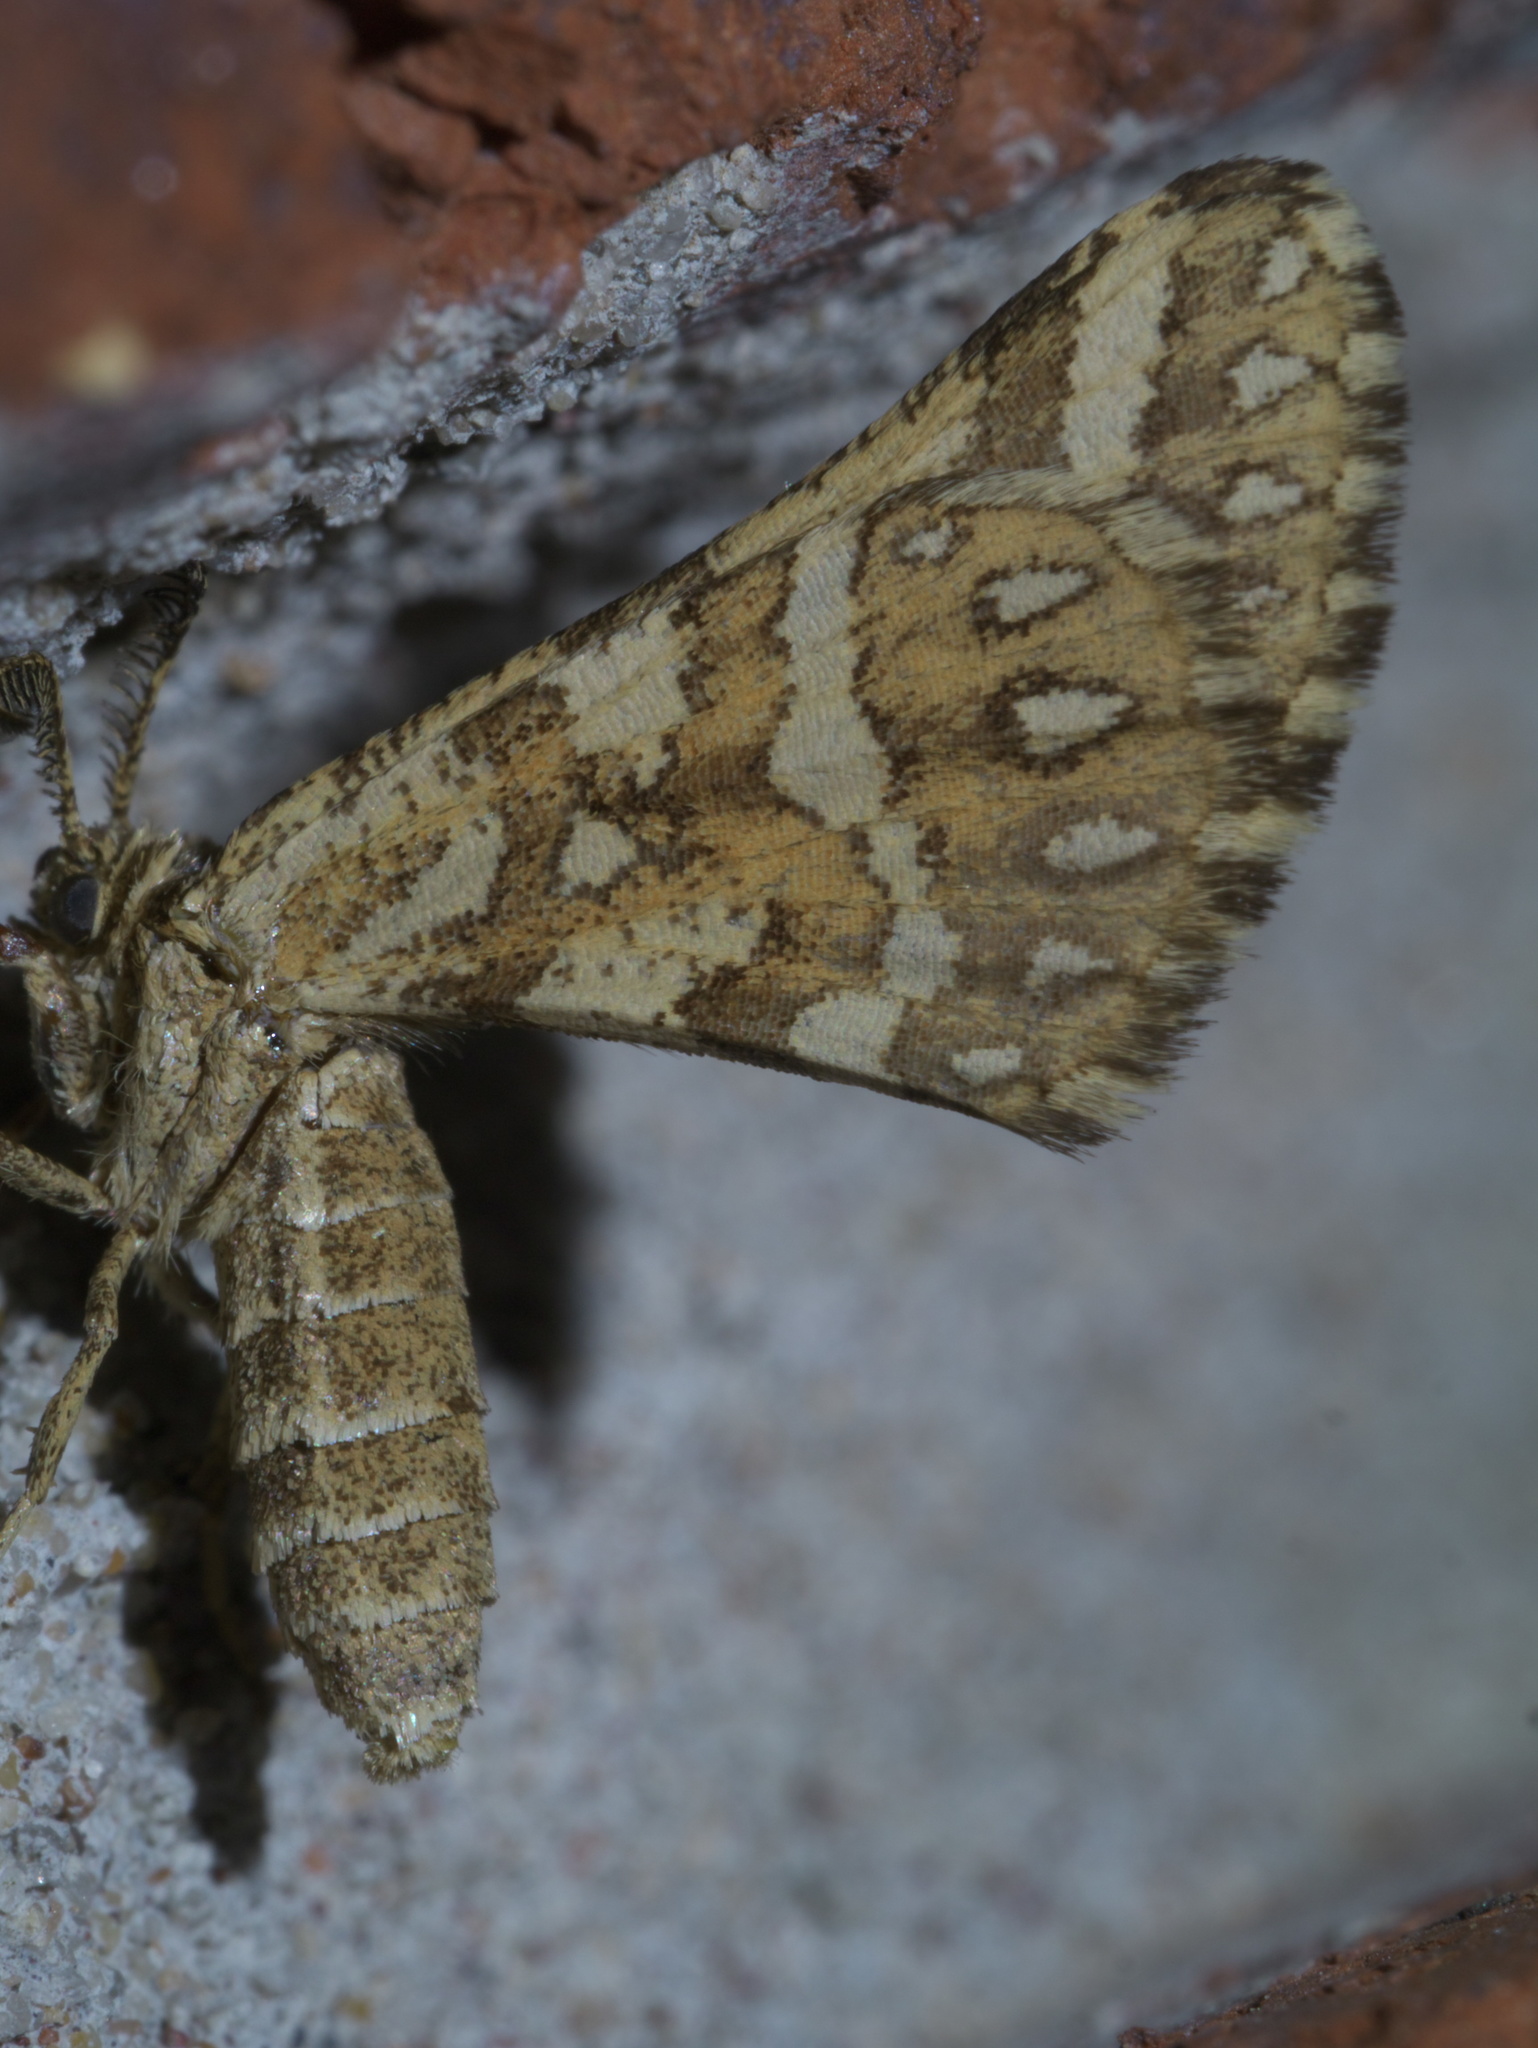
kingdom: Animalia
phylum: Arthropoda
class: Insecta
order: Lepidoptera
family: Geometridae
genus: Narraga
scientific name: Narraga fimetaria
